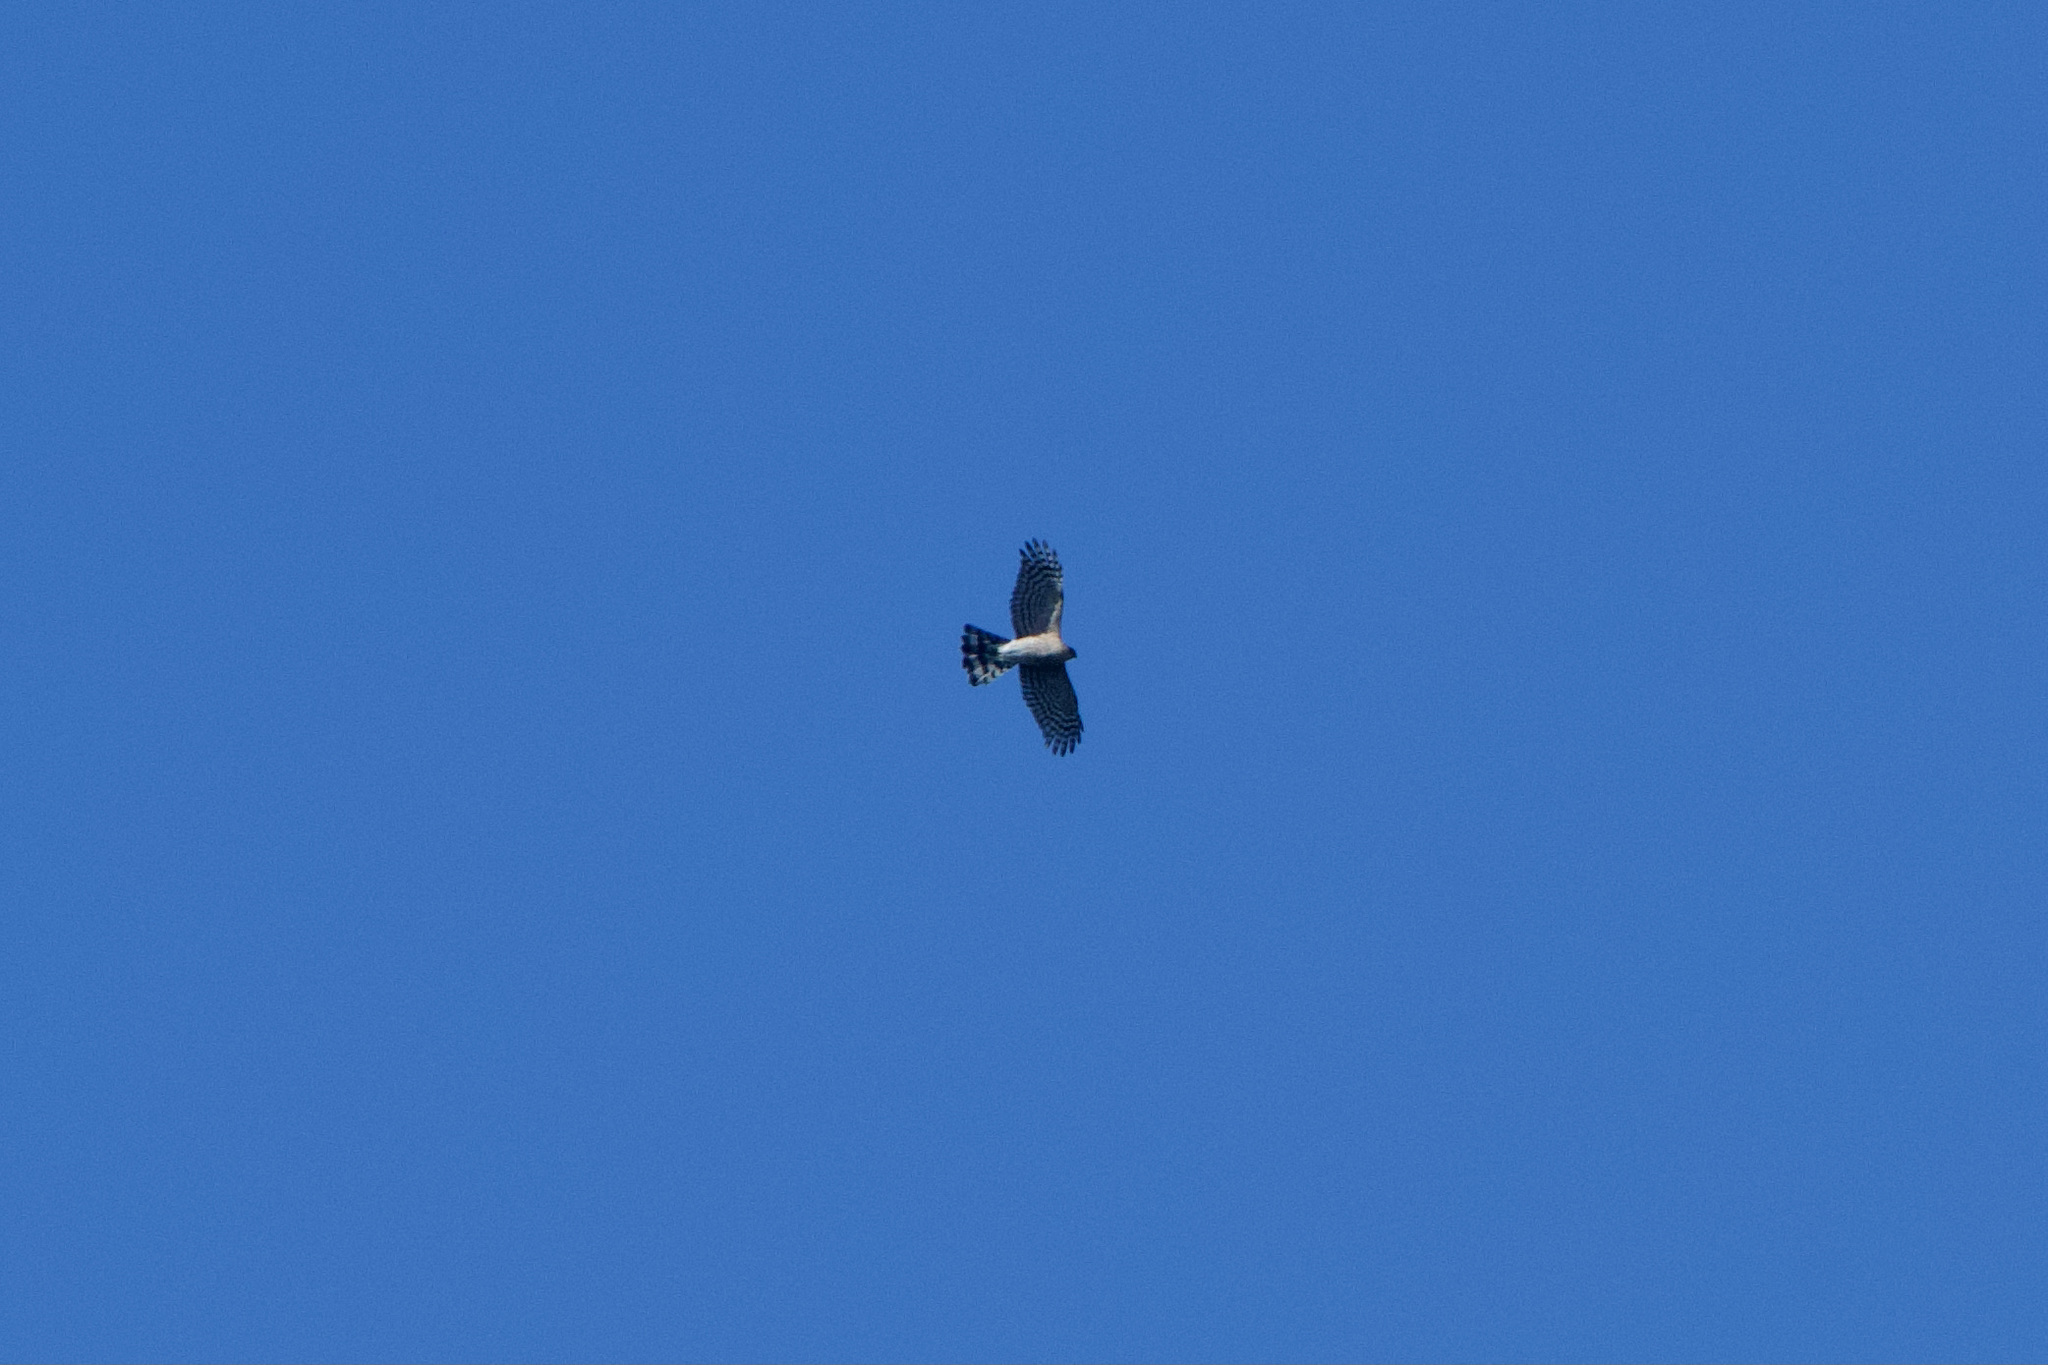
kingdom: Animalia
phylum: Chordata
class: Aves
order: Accipitriformes
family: Accipitridae
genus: Accipiter
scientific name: Accipiter striatus
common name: Sharp-shinned hawk
